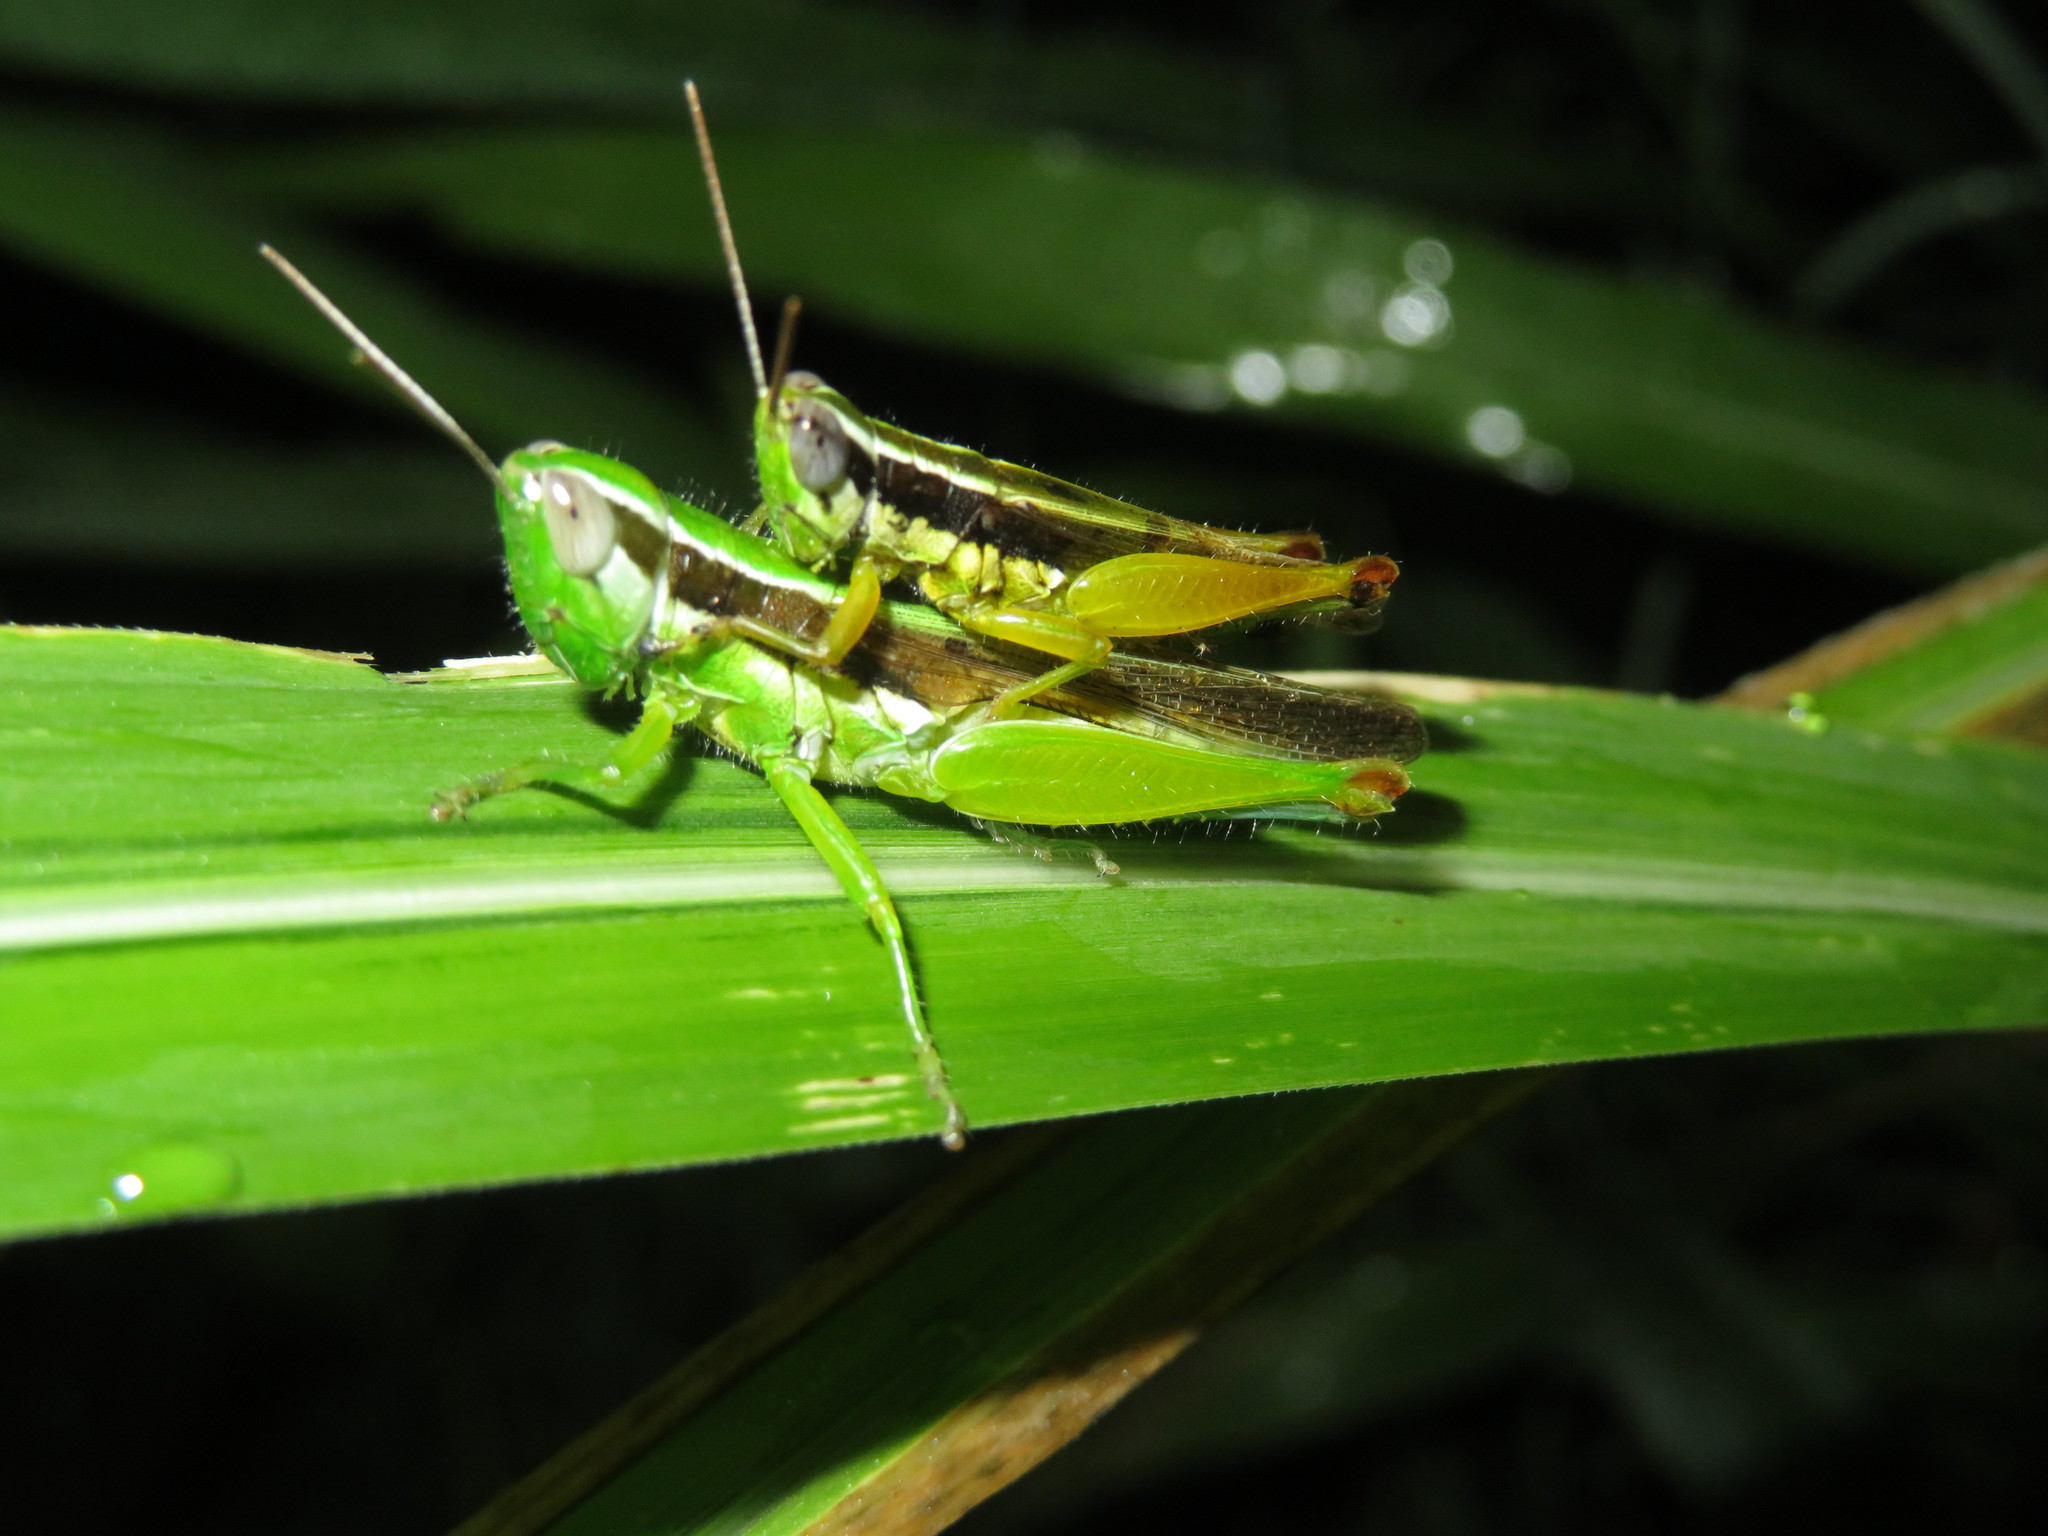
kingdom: Animalia
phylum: Arthropoda
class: Insecta
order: Orthoptera
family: Acrididae
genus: Oxya
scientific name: Oxya hyla
